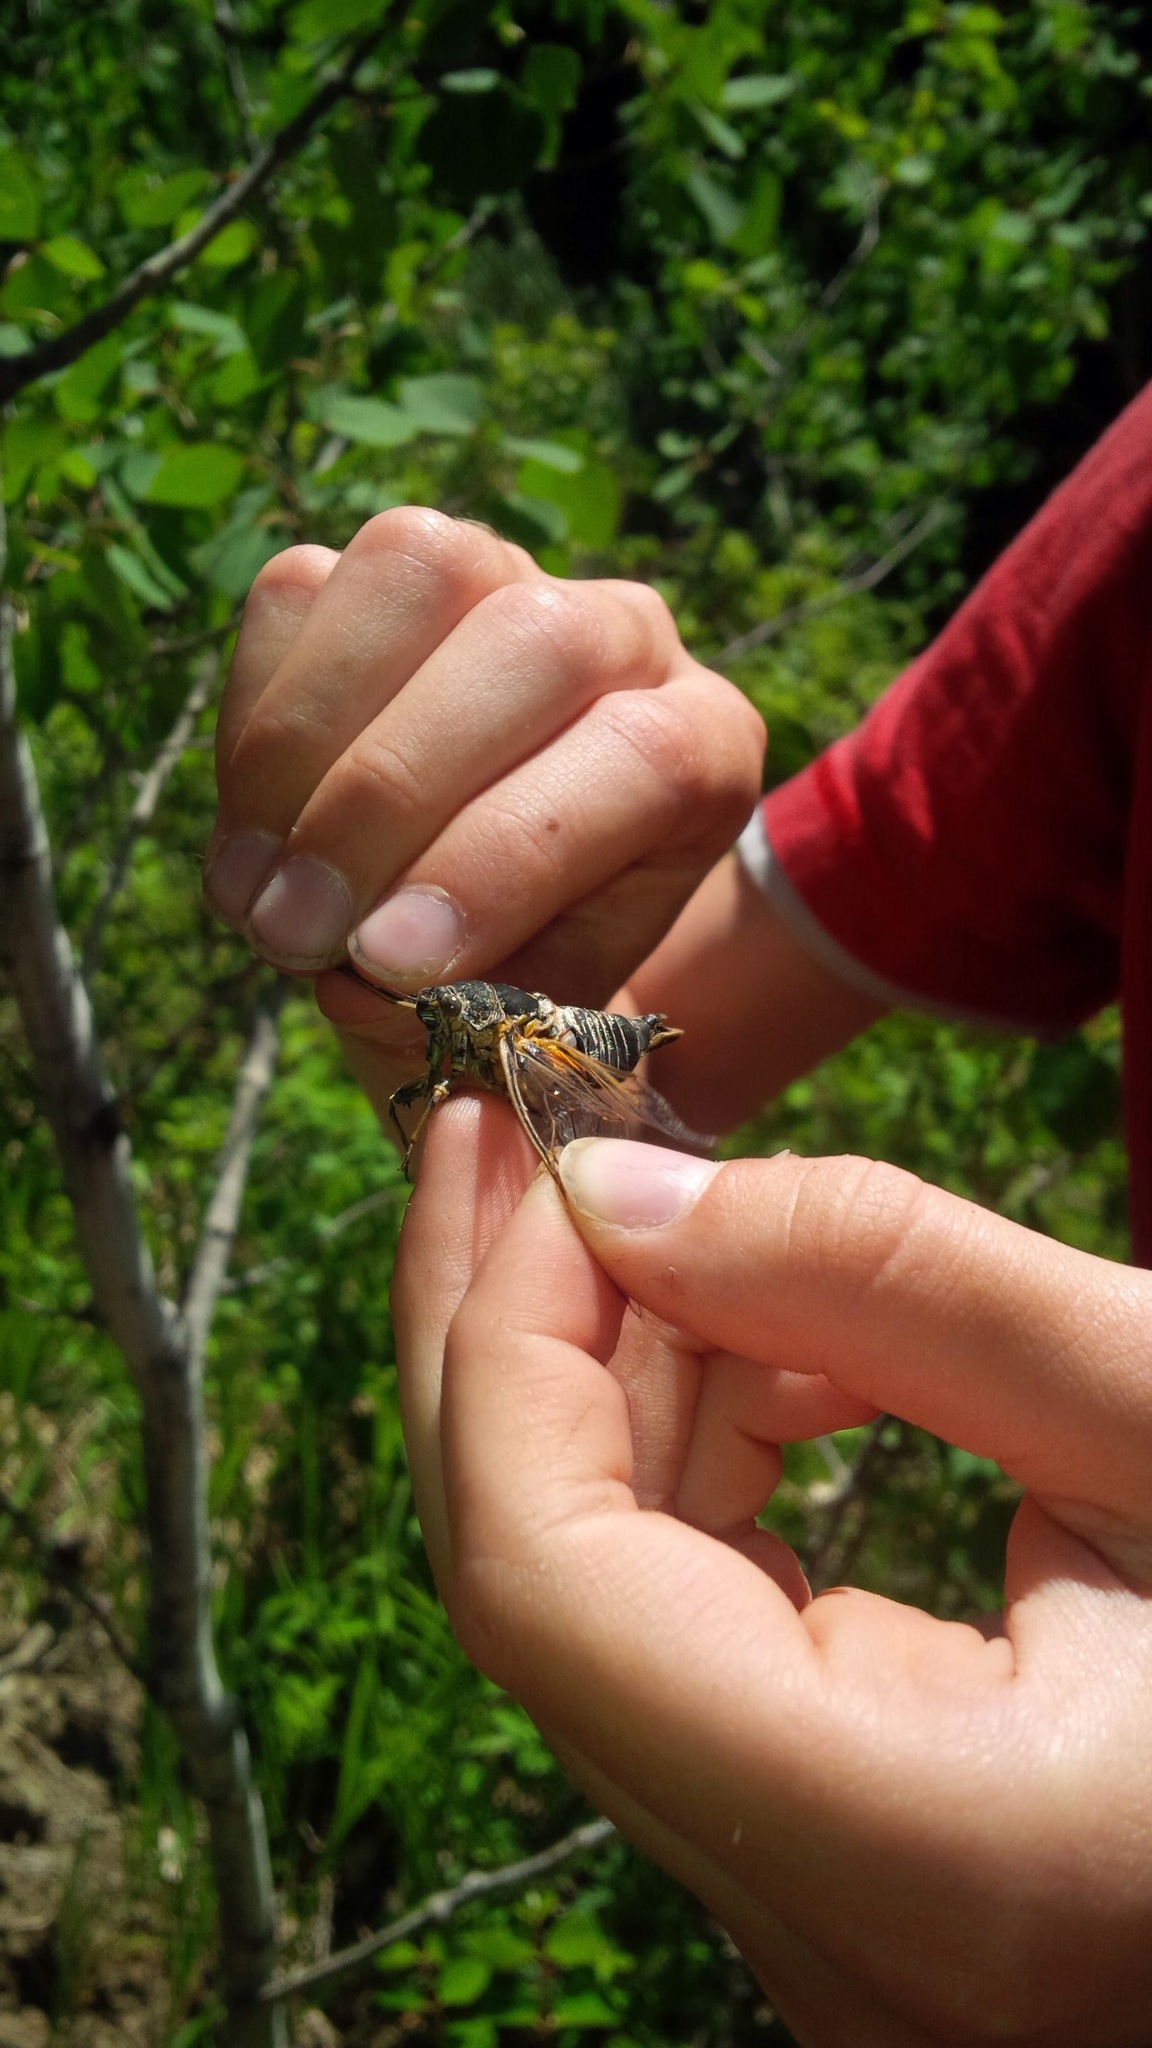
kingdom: Animalia
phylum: Arthropoda
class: Insecta
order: Hemiptera
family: Cicadidae
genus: Okanagana
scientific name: Okanagana canadensis
